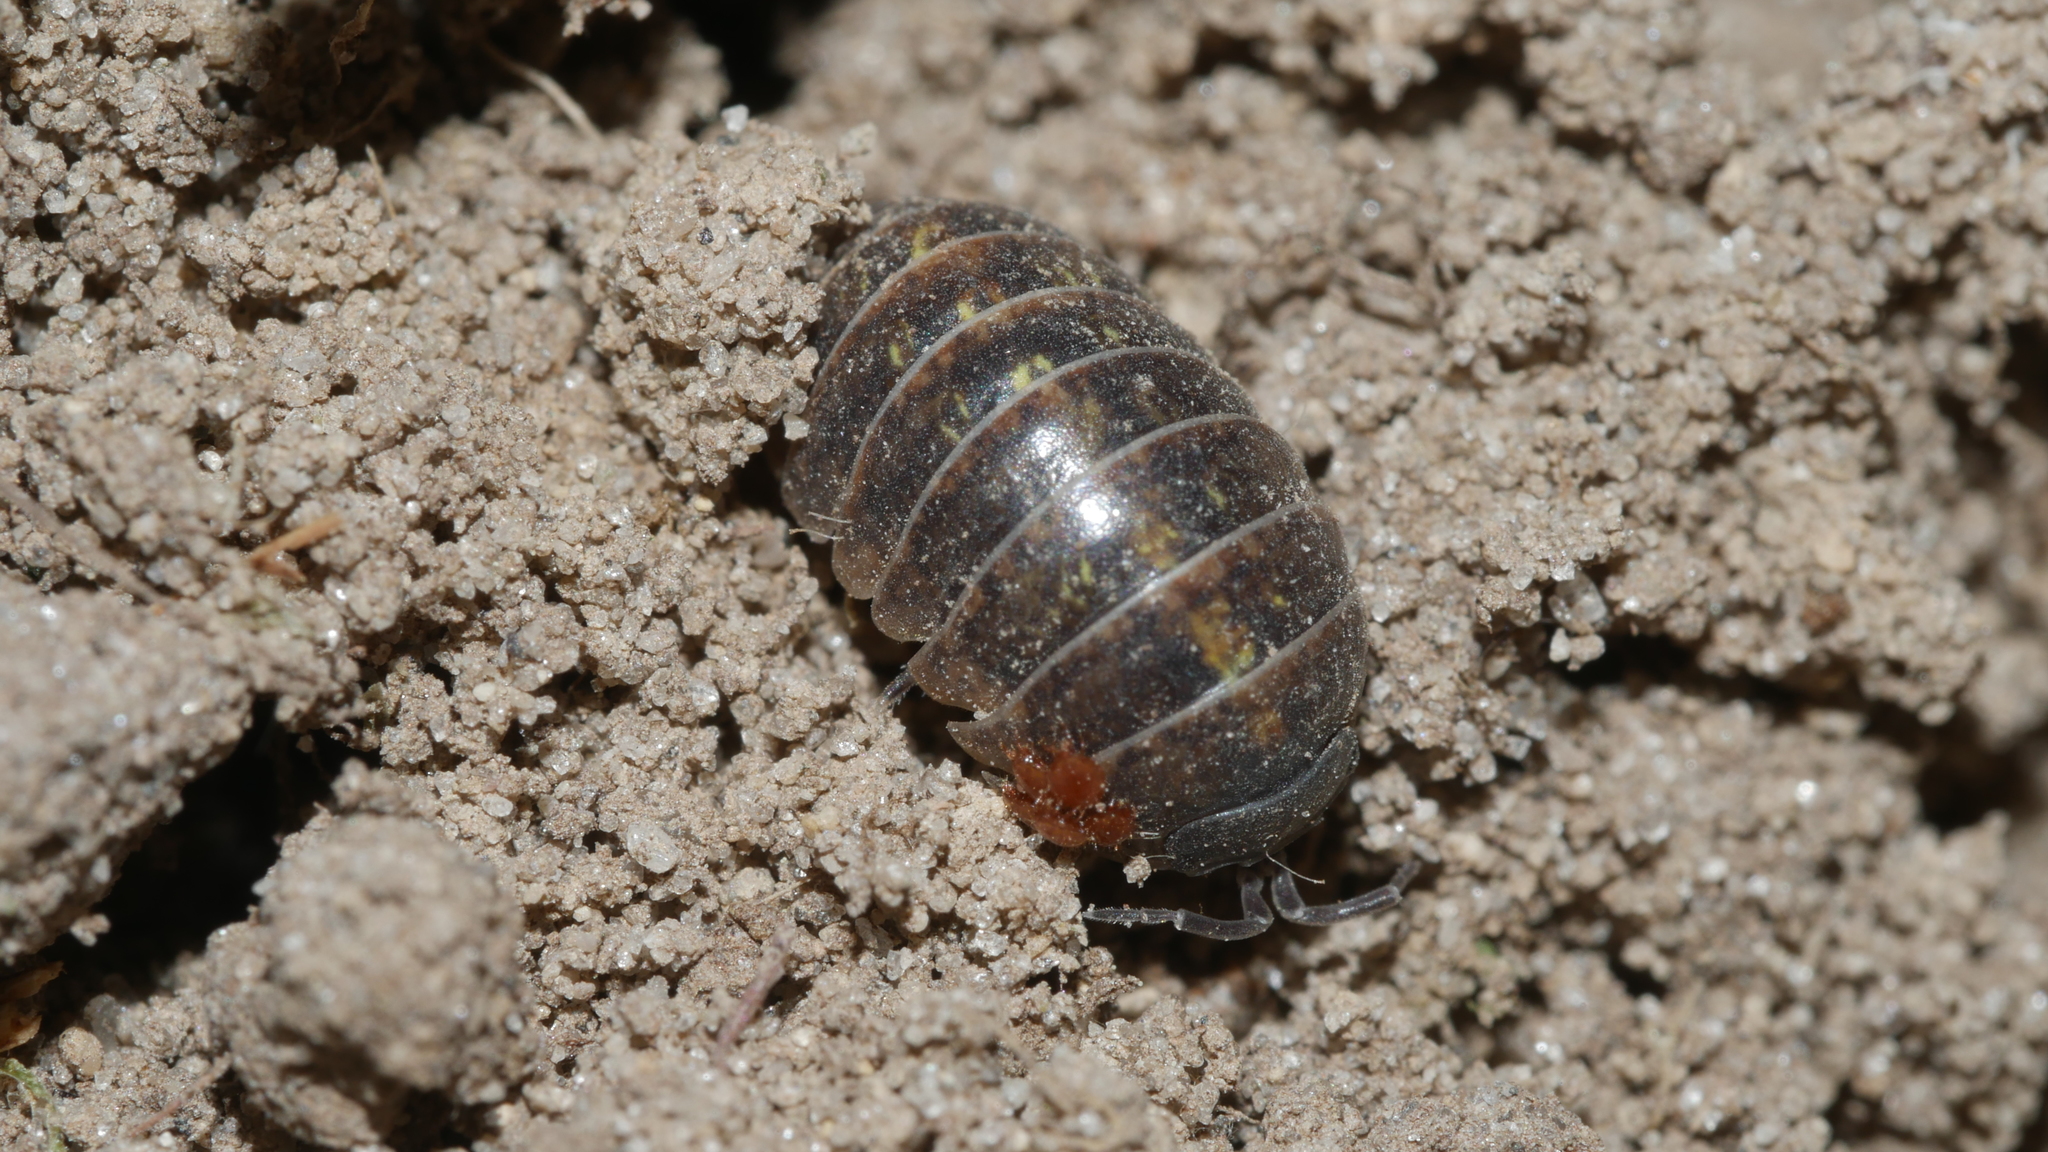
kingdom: Animalia
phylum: Arthropoda
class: Malacostraca
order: Isopoda
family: Armadillidiidae
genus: Armadillidium
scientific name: Armadillidium vulgare
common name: Common pill woodlouse
